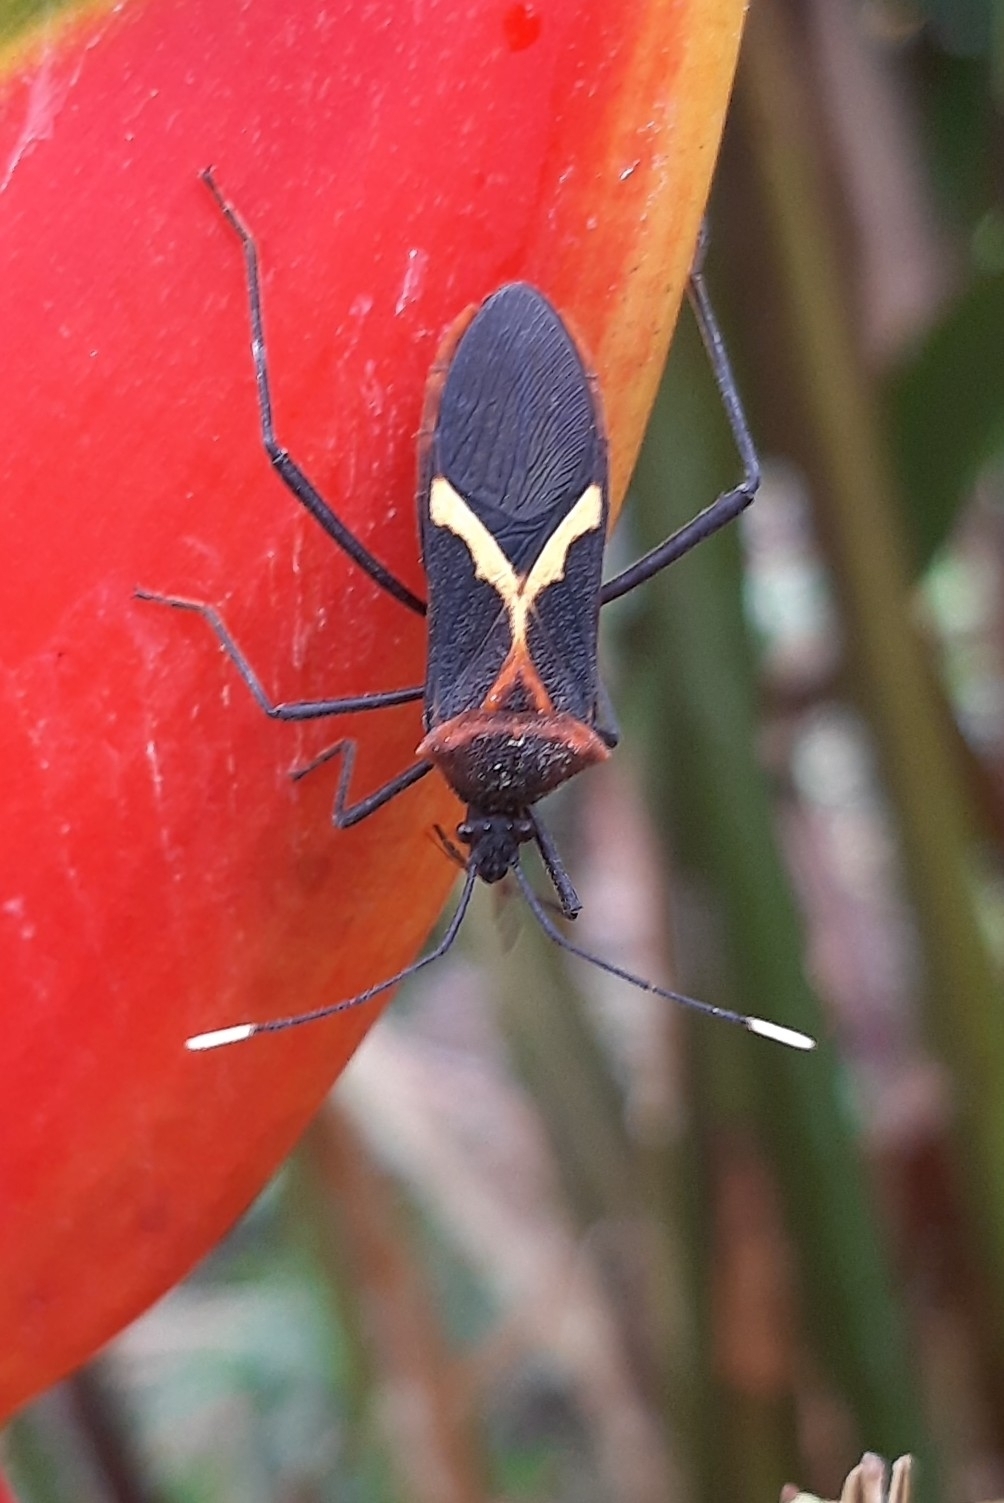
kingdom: Animalia
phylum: Arthropoda
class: Insecta
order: Hemiptera
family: Coreidae
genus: Leptoscelis
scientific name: Leptoscelis tricolor
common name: Heliconia bug
